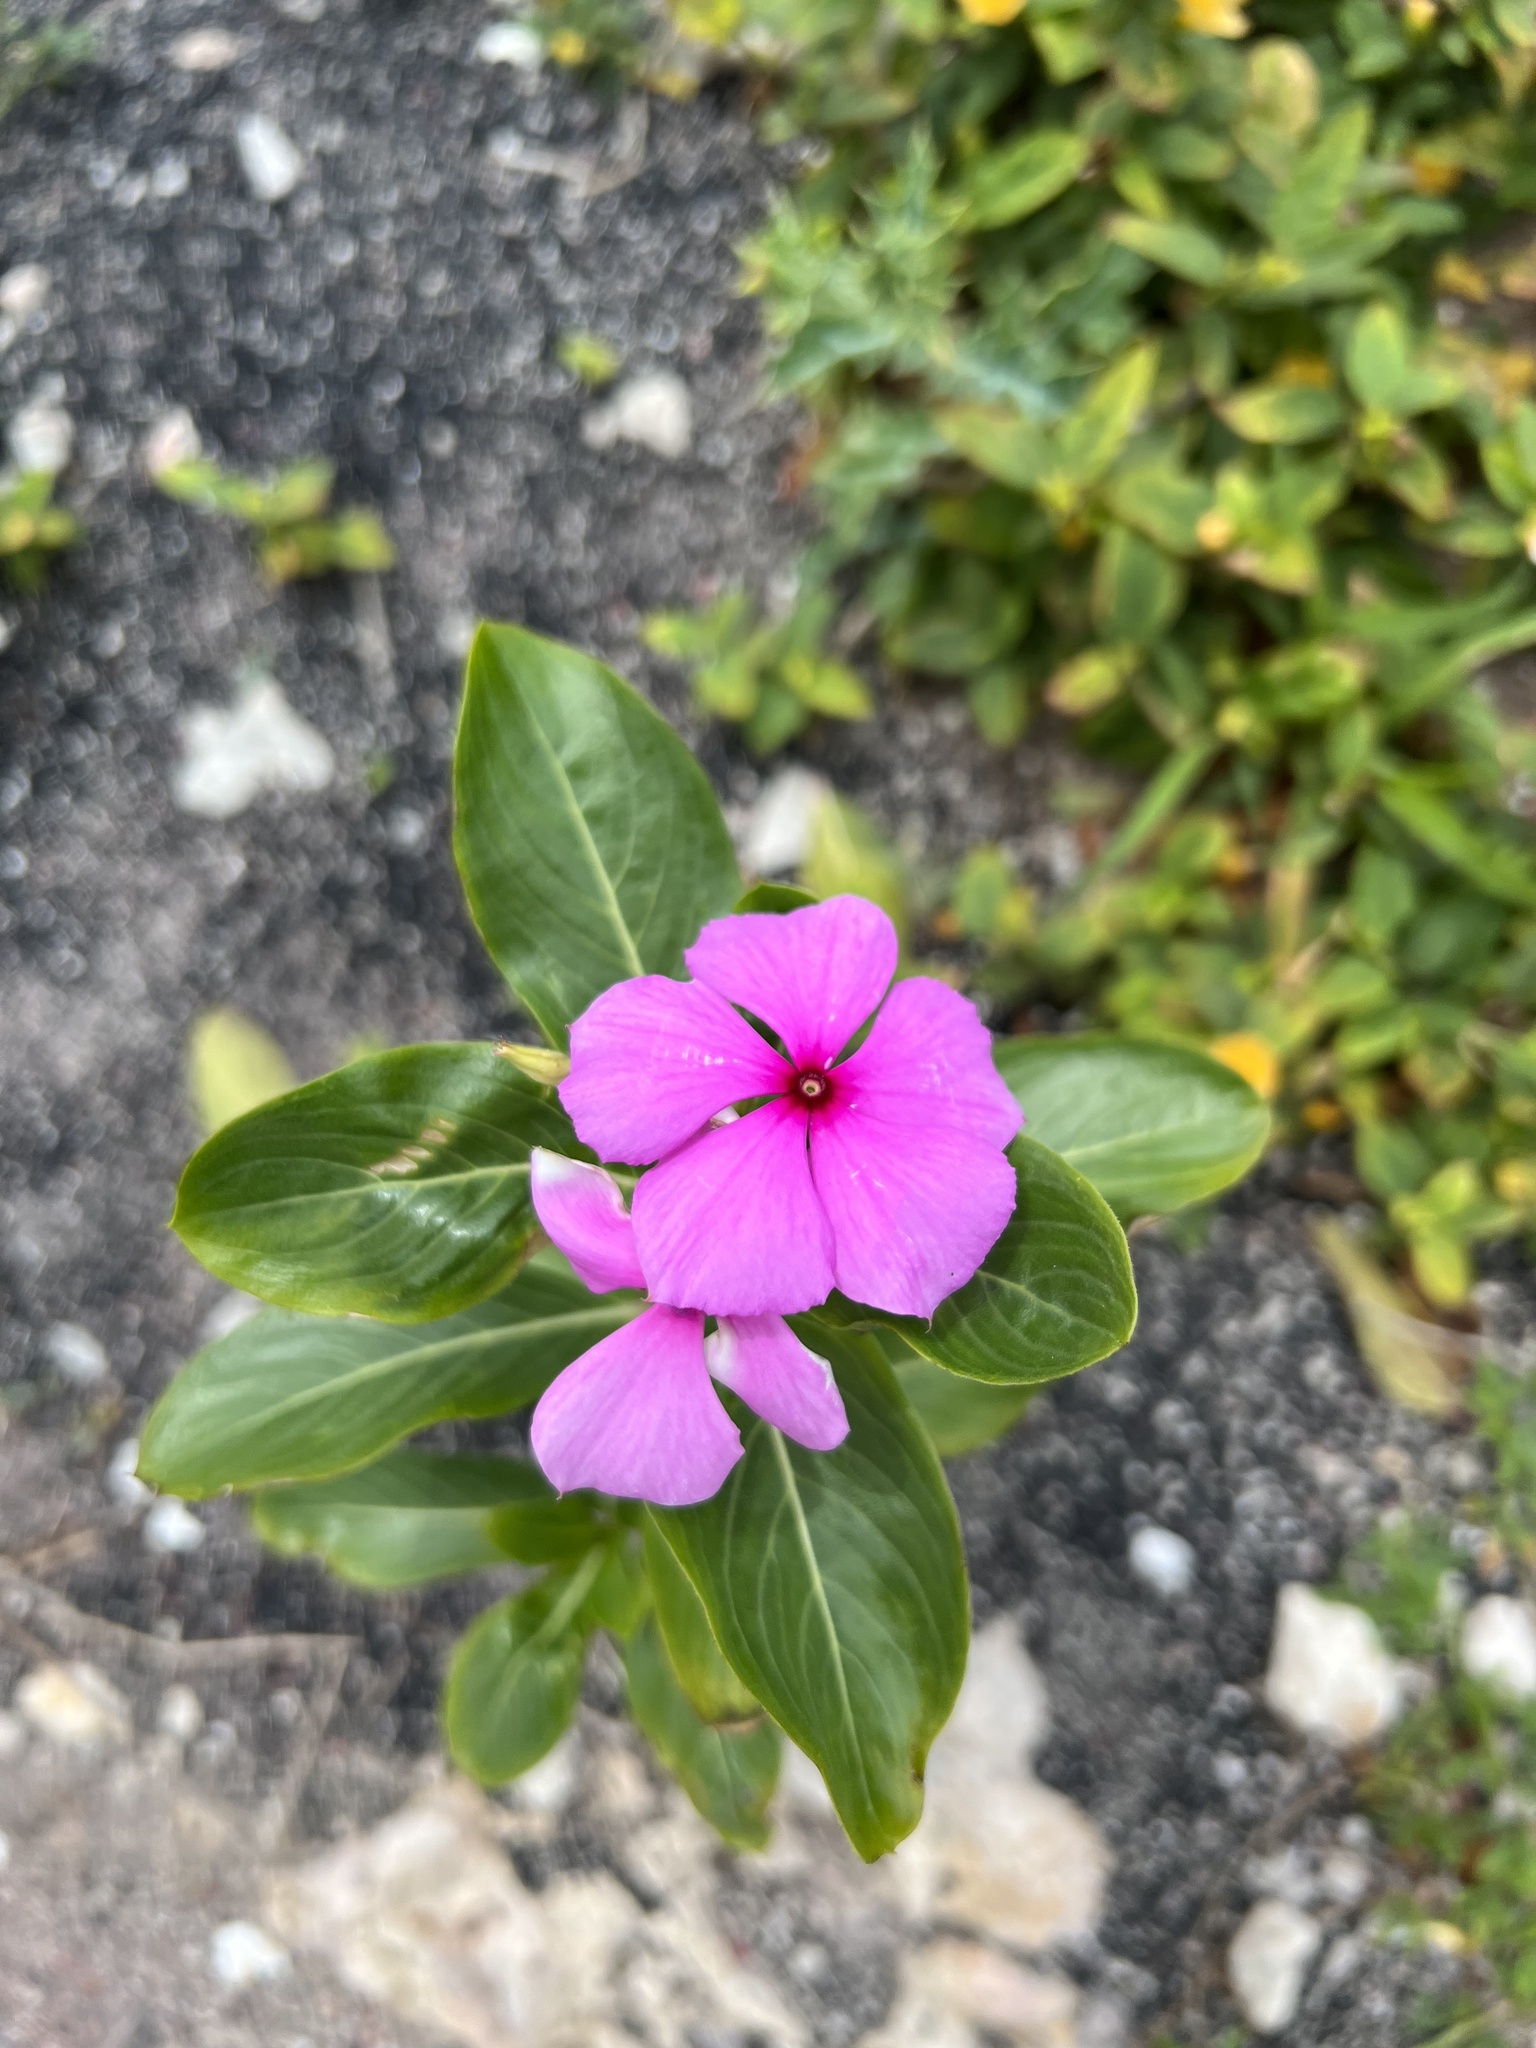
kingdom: Plantae
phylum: Tracheophyta
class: Magnoliopsida
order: Gentianales
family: Apocynaceae
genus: Catharanthus
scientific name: Catharanthus roseus
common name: Madagascar periwinkle
